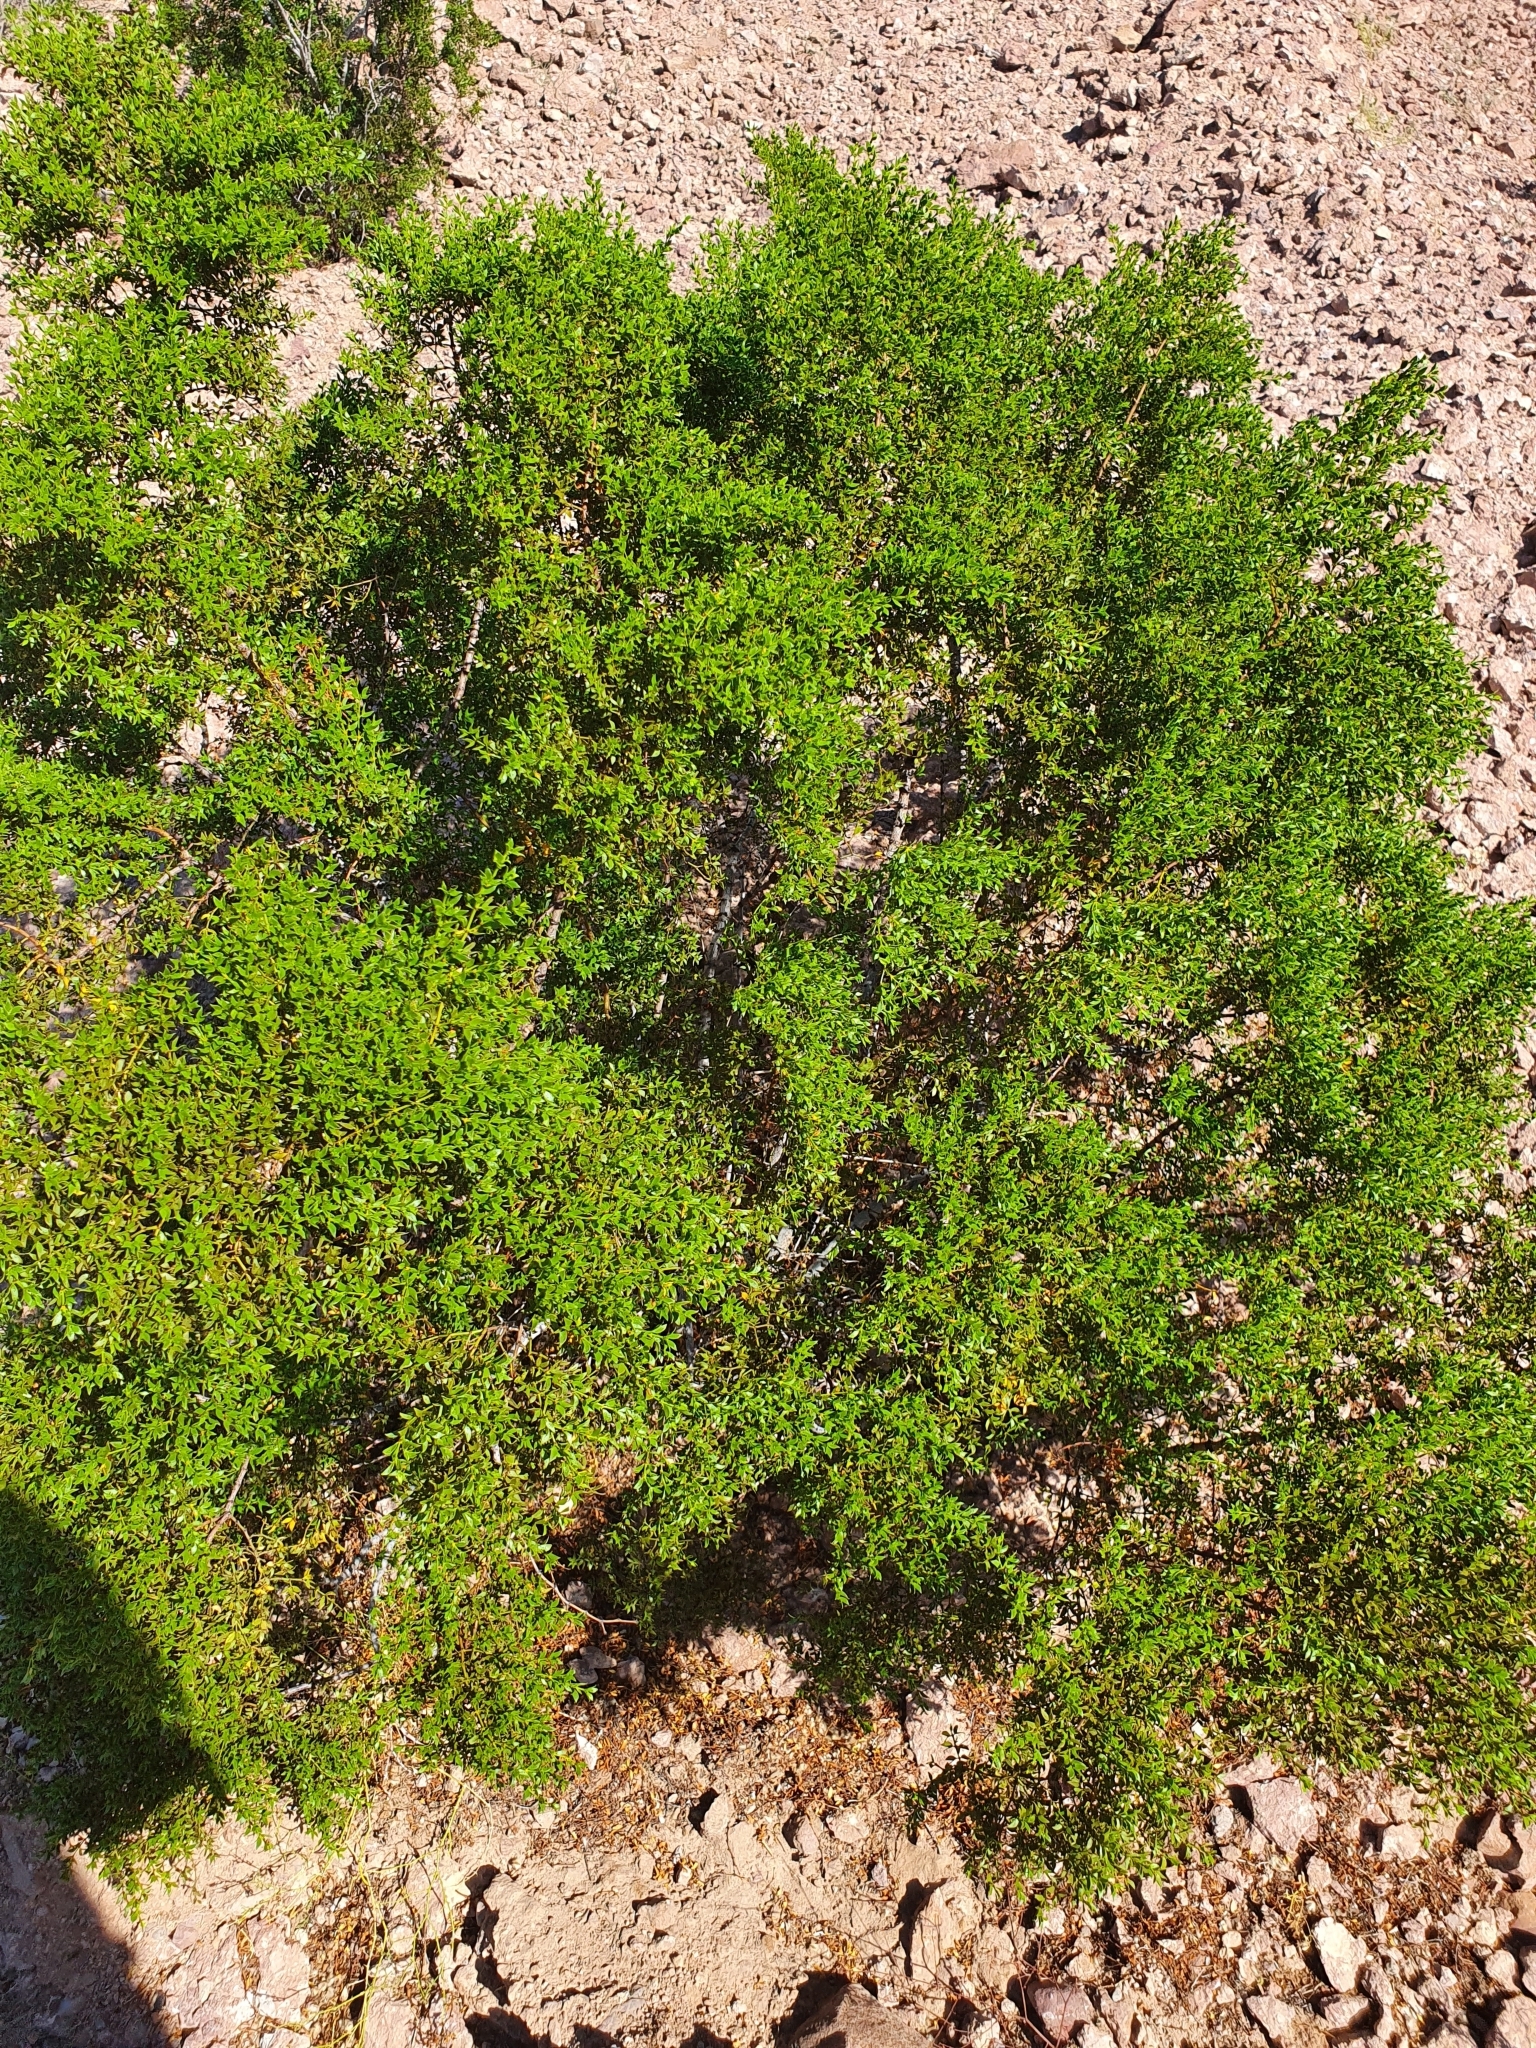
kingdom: Plantae
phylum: Tracheophyta
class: Magnoliopsida
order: Zygophyllales
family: Zygophyllaceae
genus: Larrea
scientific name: Larrea tridentata
